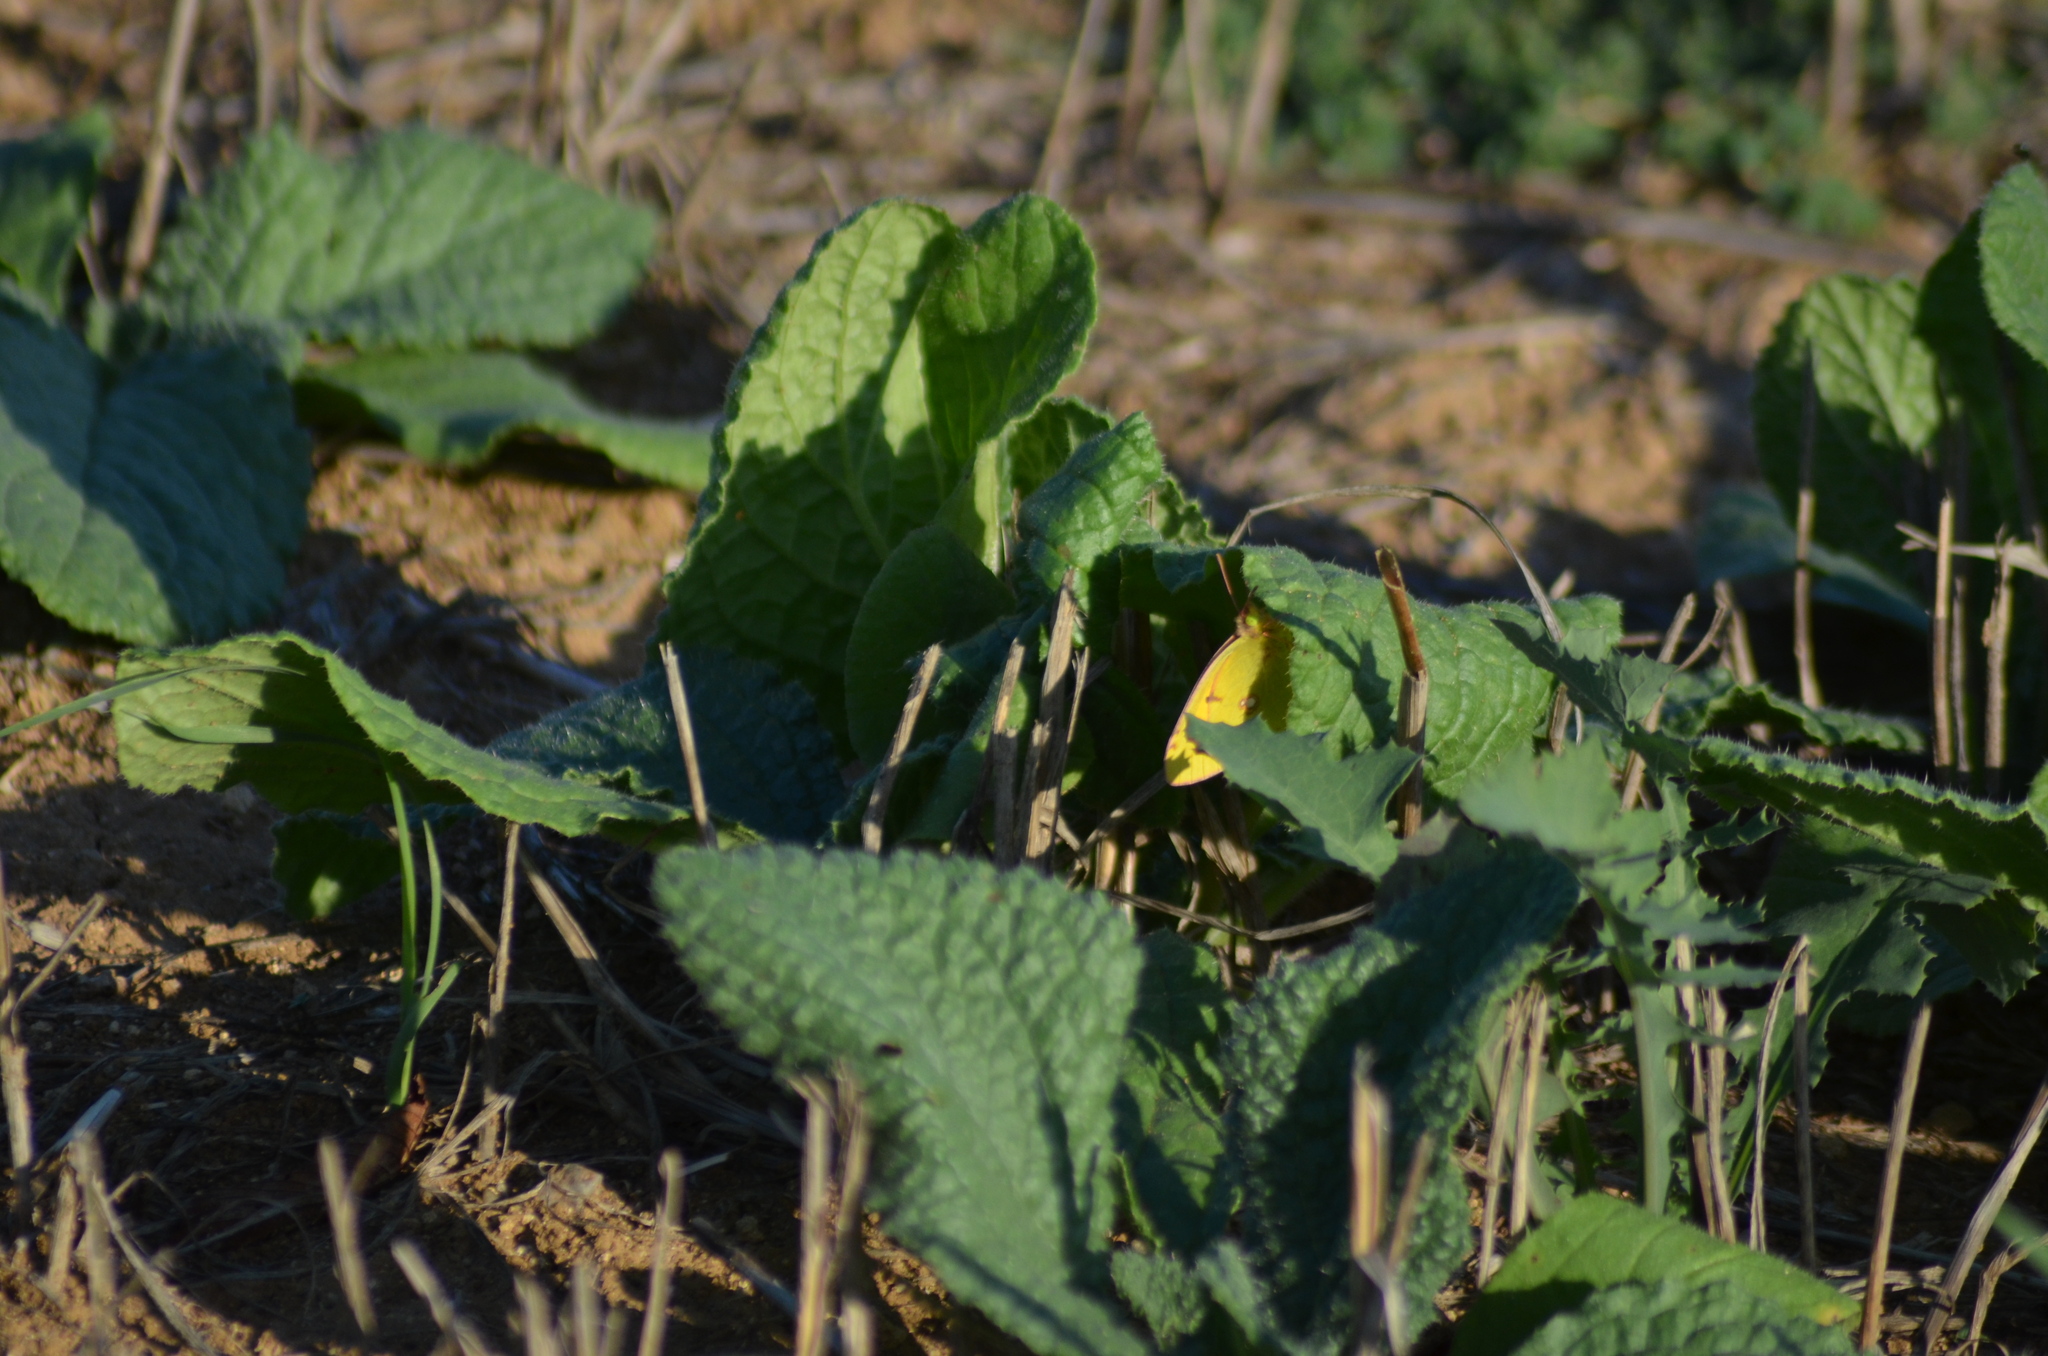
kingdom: Animalia
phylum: Arthropoda
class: Insecta
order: Lepidoptera
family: Pieridae
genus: Colias
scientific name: Colias croceus
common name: Clouded yellow
